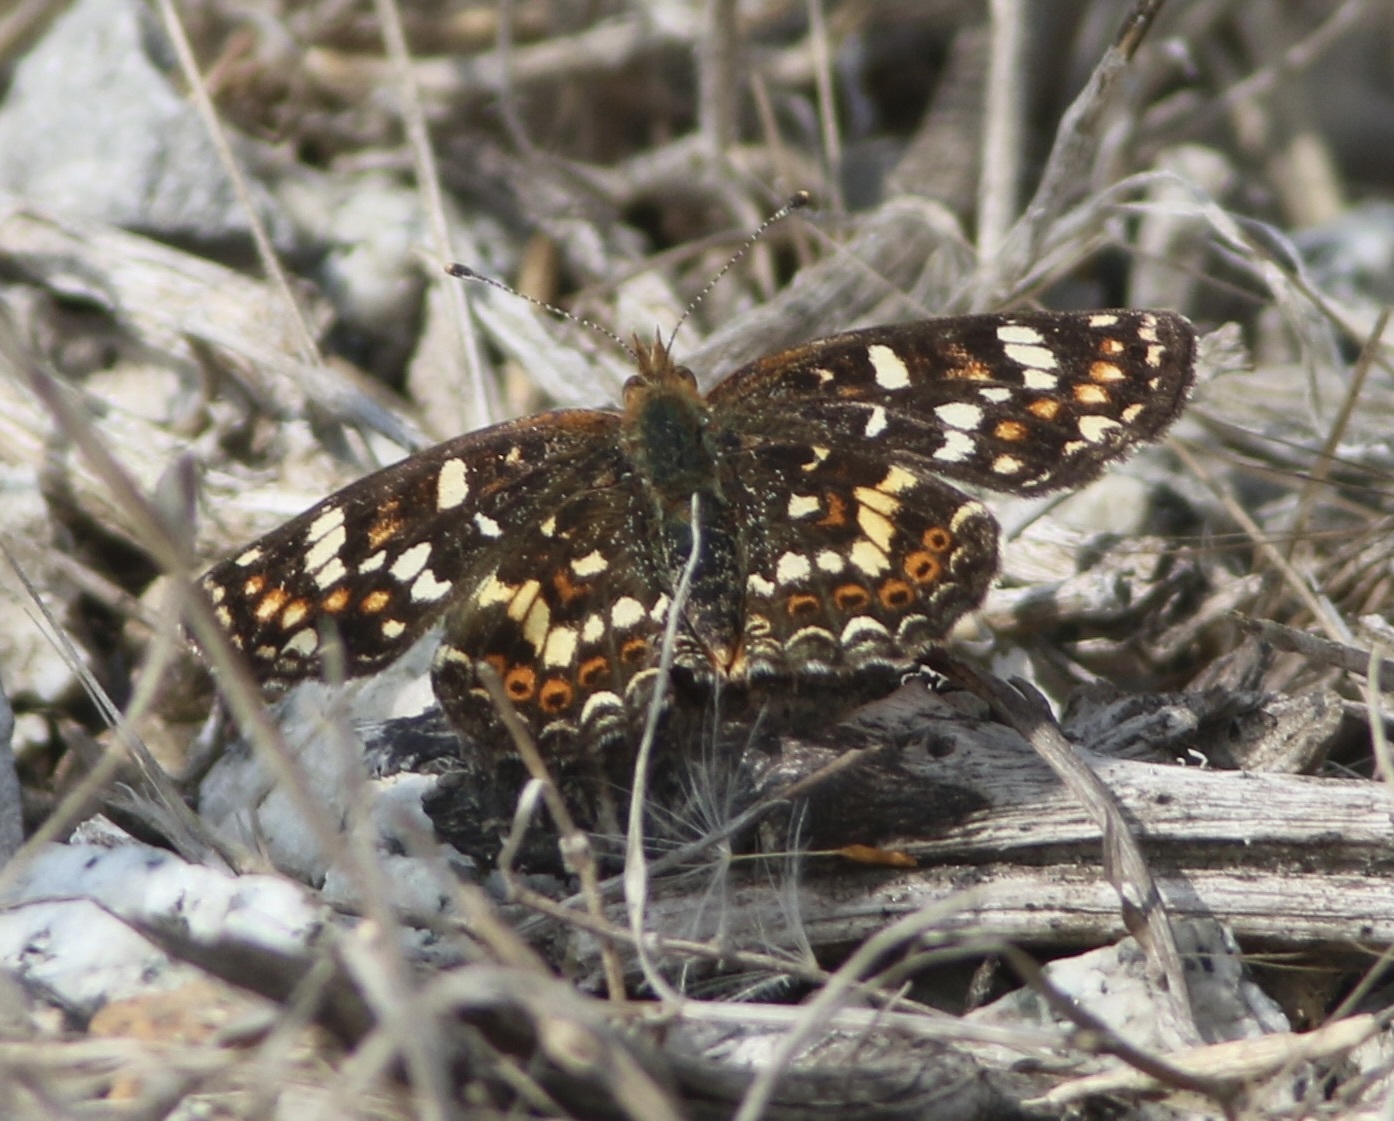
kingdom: Animalia
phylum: Arthropoda
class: Insecta
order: Lepidoptera
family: Nymphalidae
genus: Phyciodes
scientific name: Phyciodes tharos
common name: Pearl crescent
